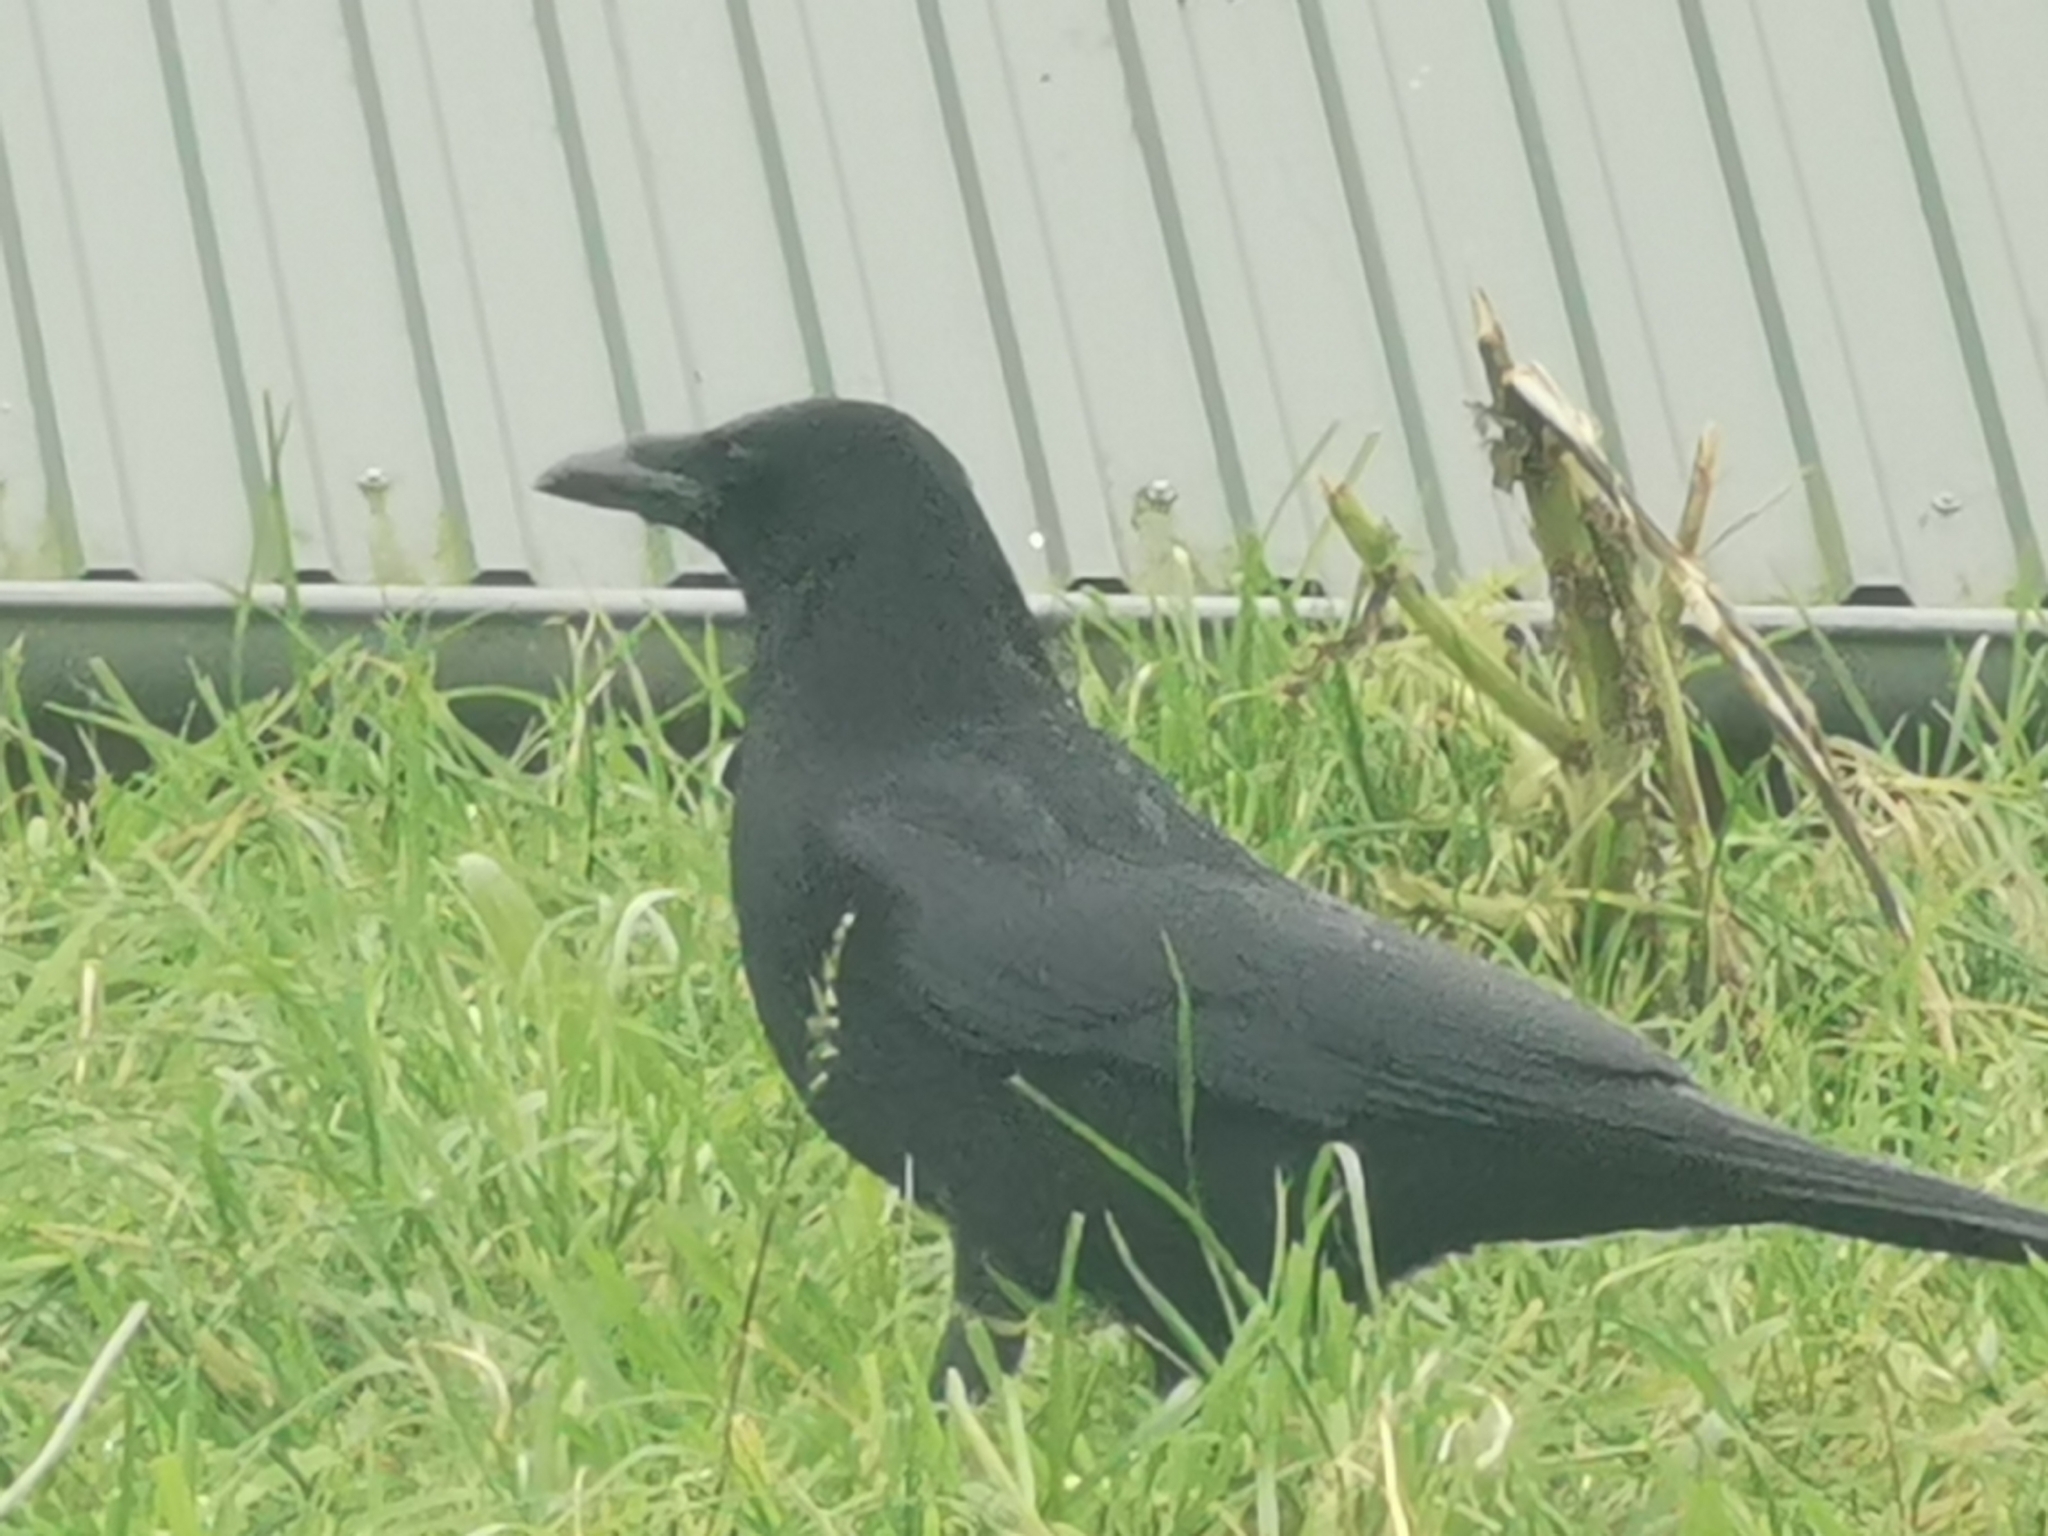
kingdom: Animalia
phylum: Chordata
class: Aves
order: Passeriformes
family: Corvidae
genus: Corvus
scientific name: Corvus corone
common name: Carrion crow
